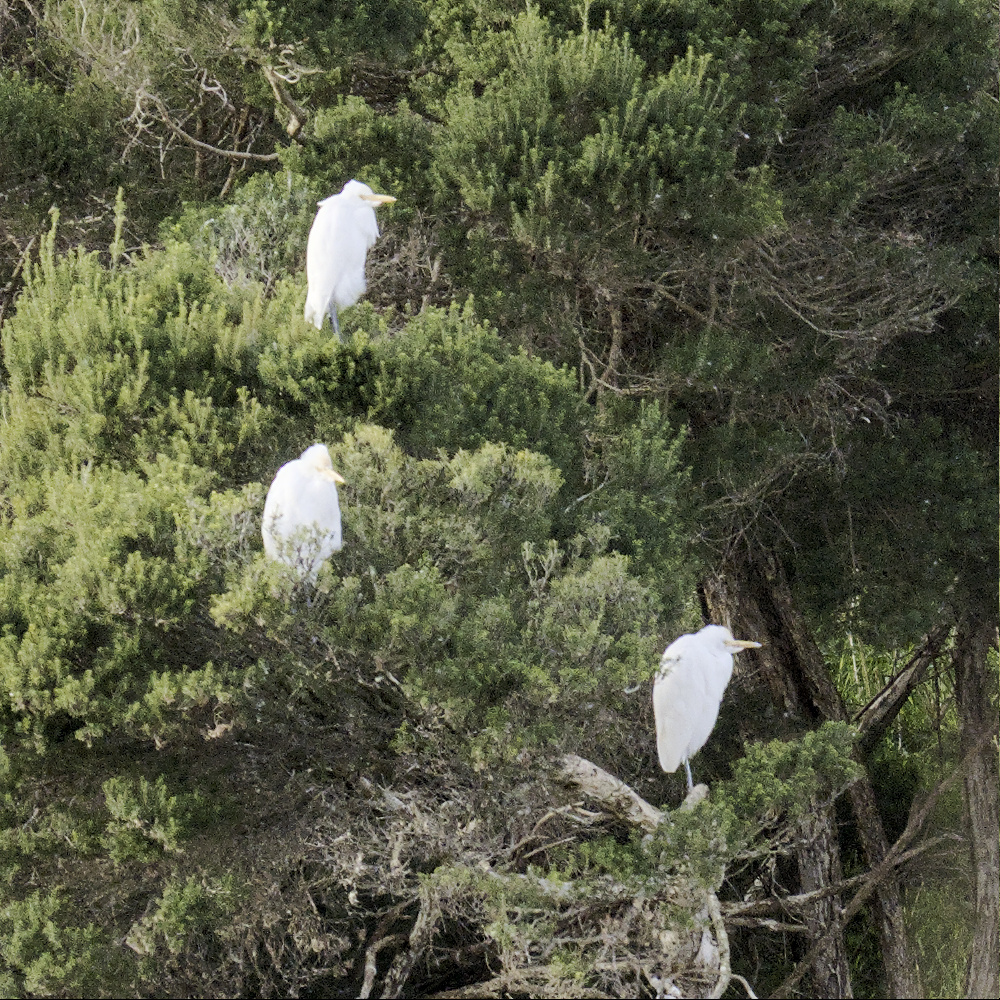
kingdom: Animalia
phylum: Chordata
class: Aves
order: Pelecaniformes
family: Ardeidae
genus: Bubulcus
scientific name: Bubulcus coromandus
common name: Eastern cattle egret
